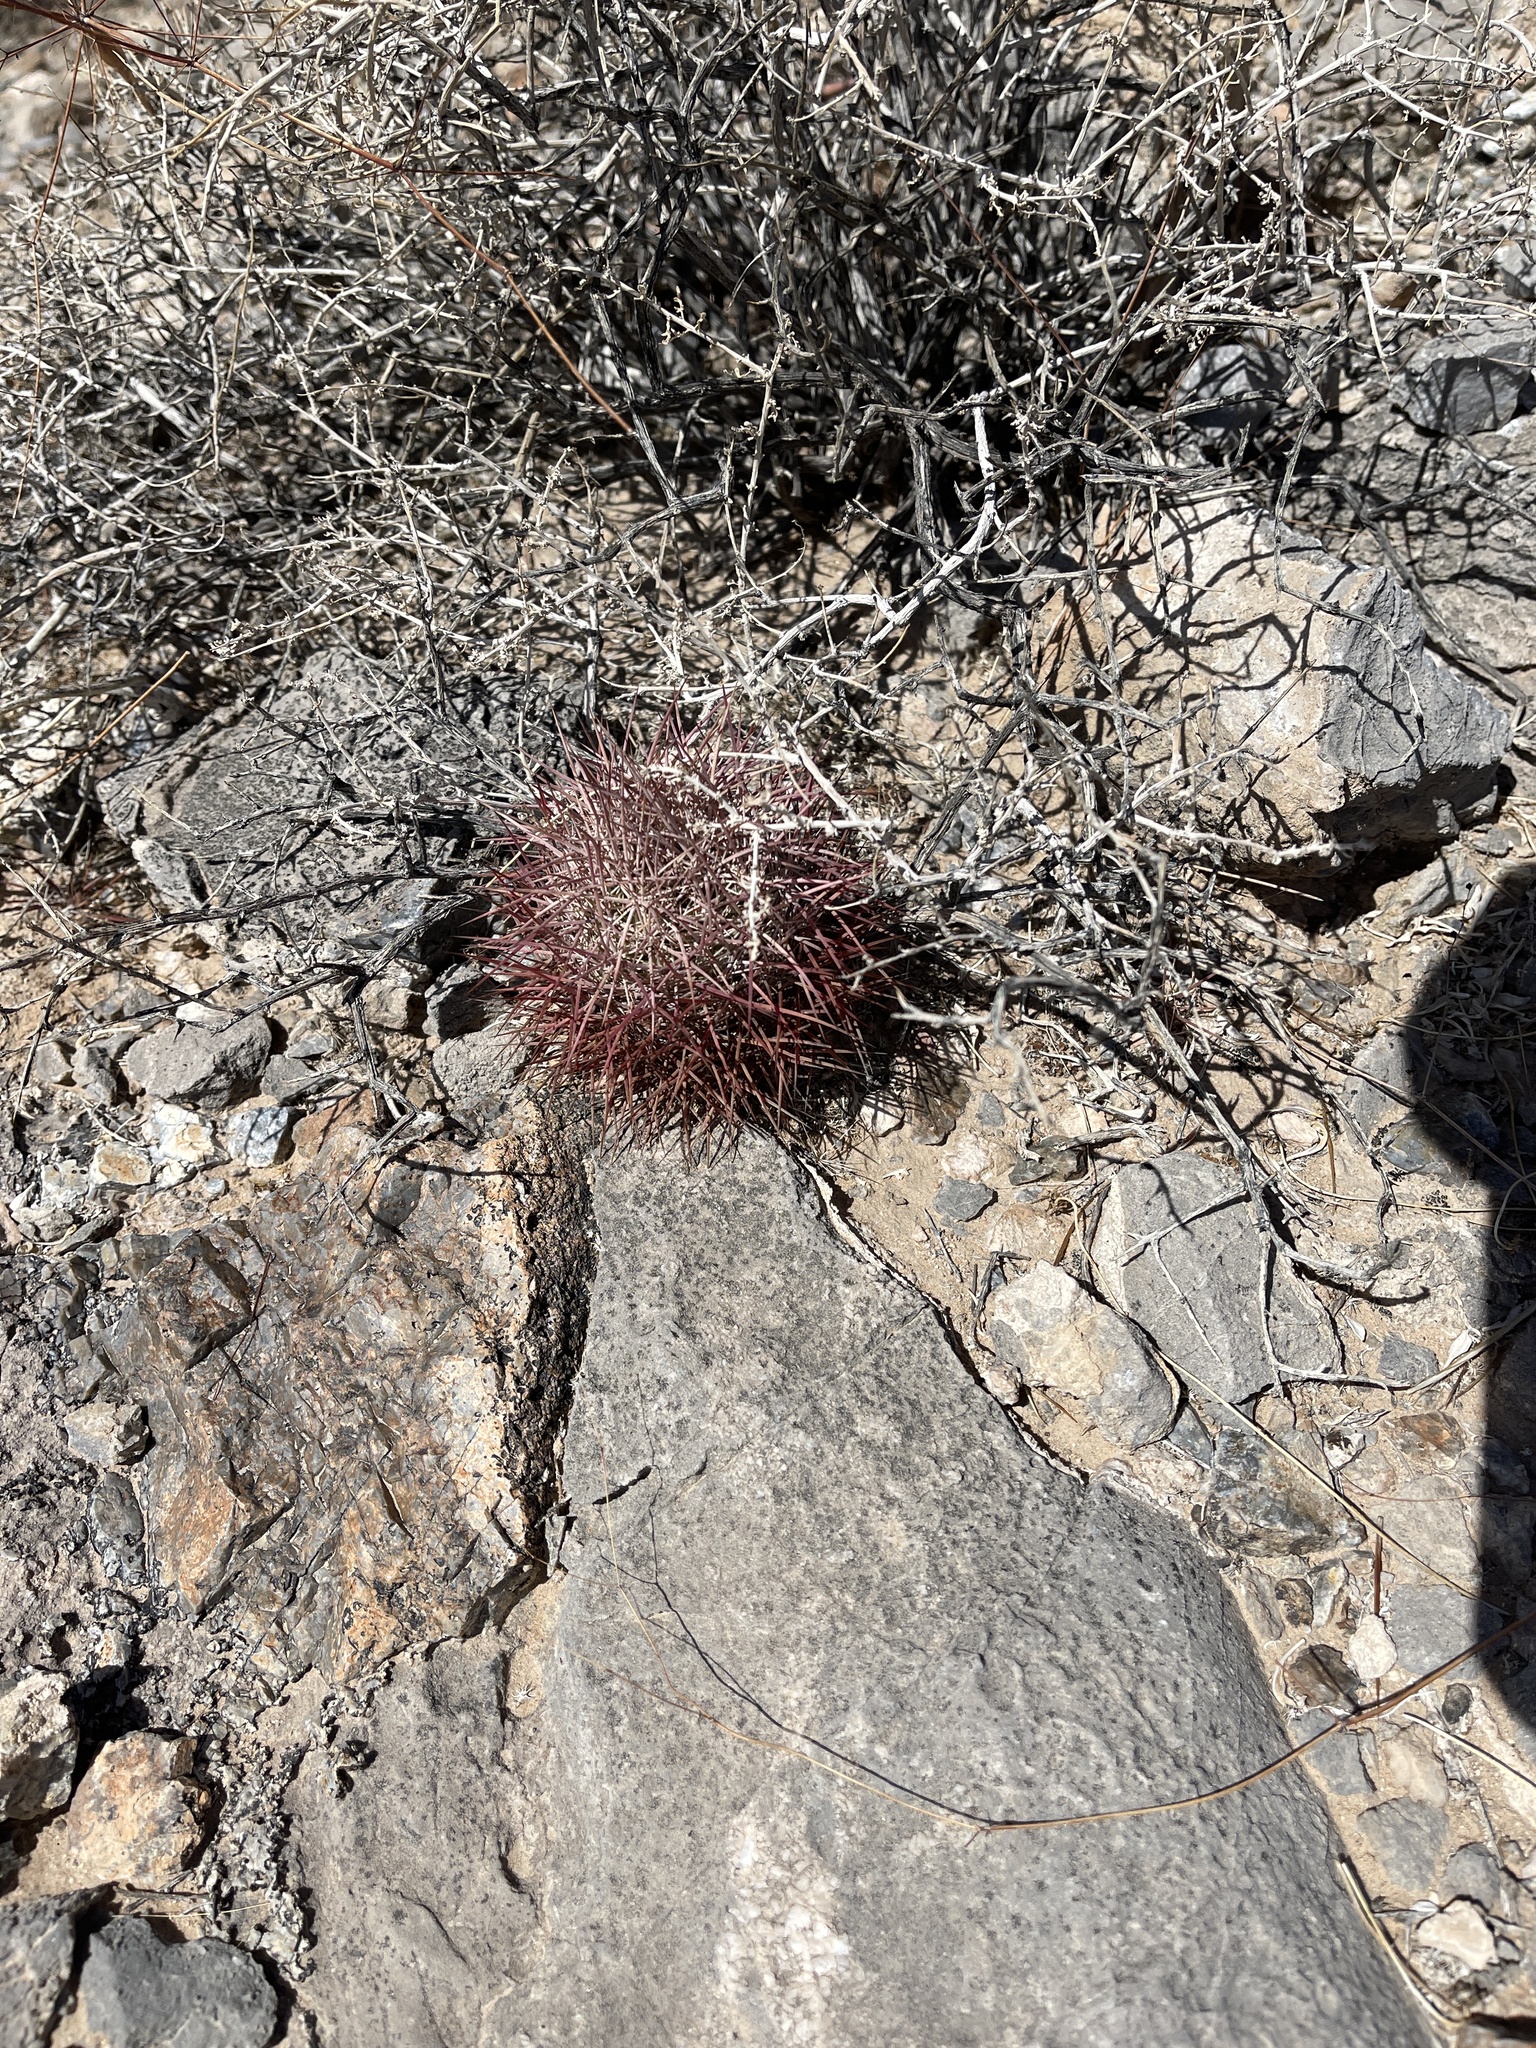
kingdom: Plantae
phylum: Tracheophyta
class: Magnoliopsida
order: Caryophyllales
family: Cactaceae
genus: Sclerocactus
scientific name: Sclerocactus johnsonii
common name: Eight-spine fishhook cactus
